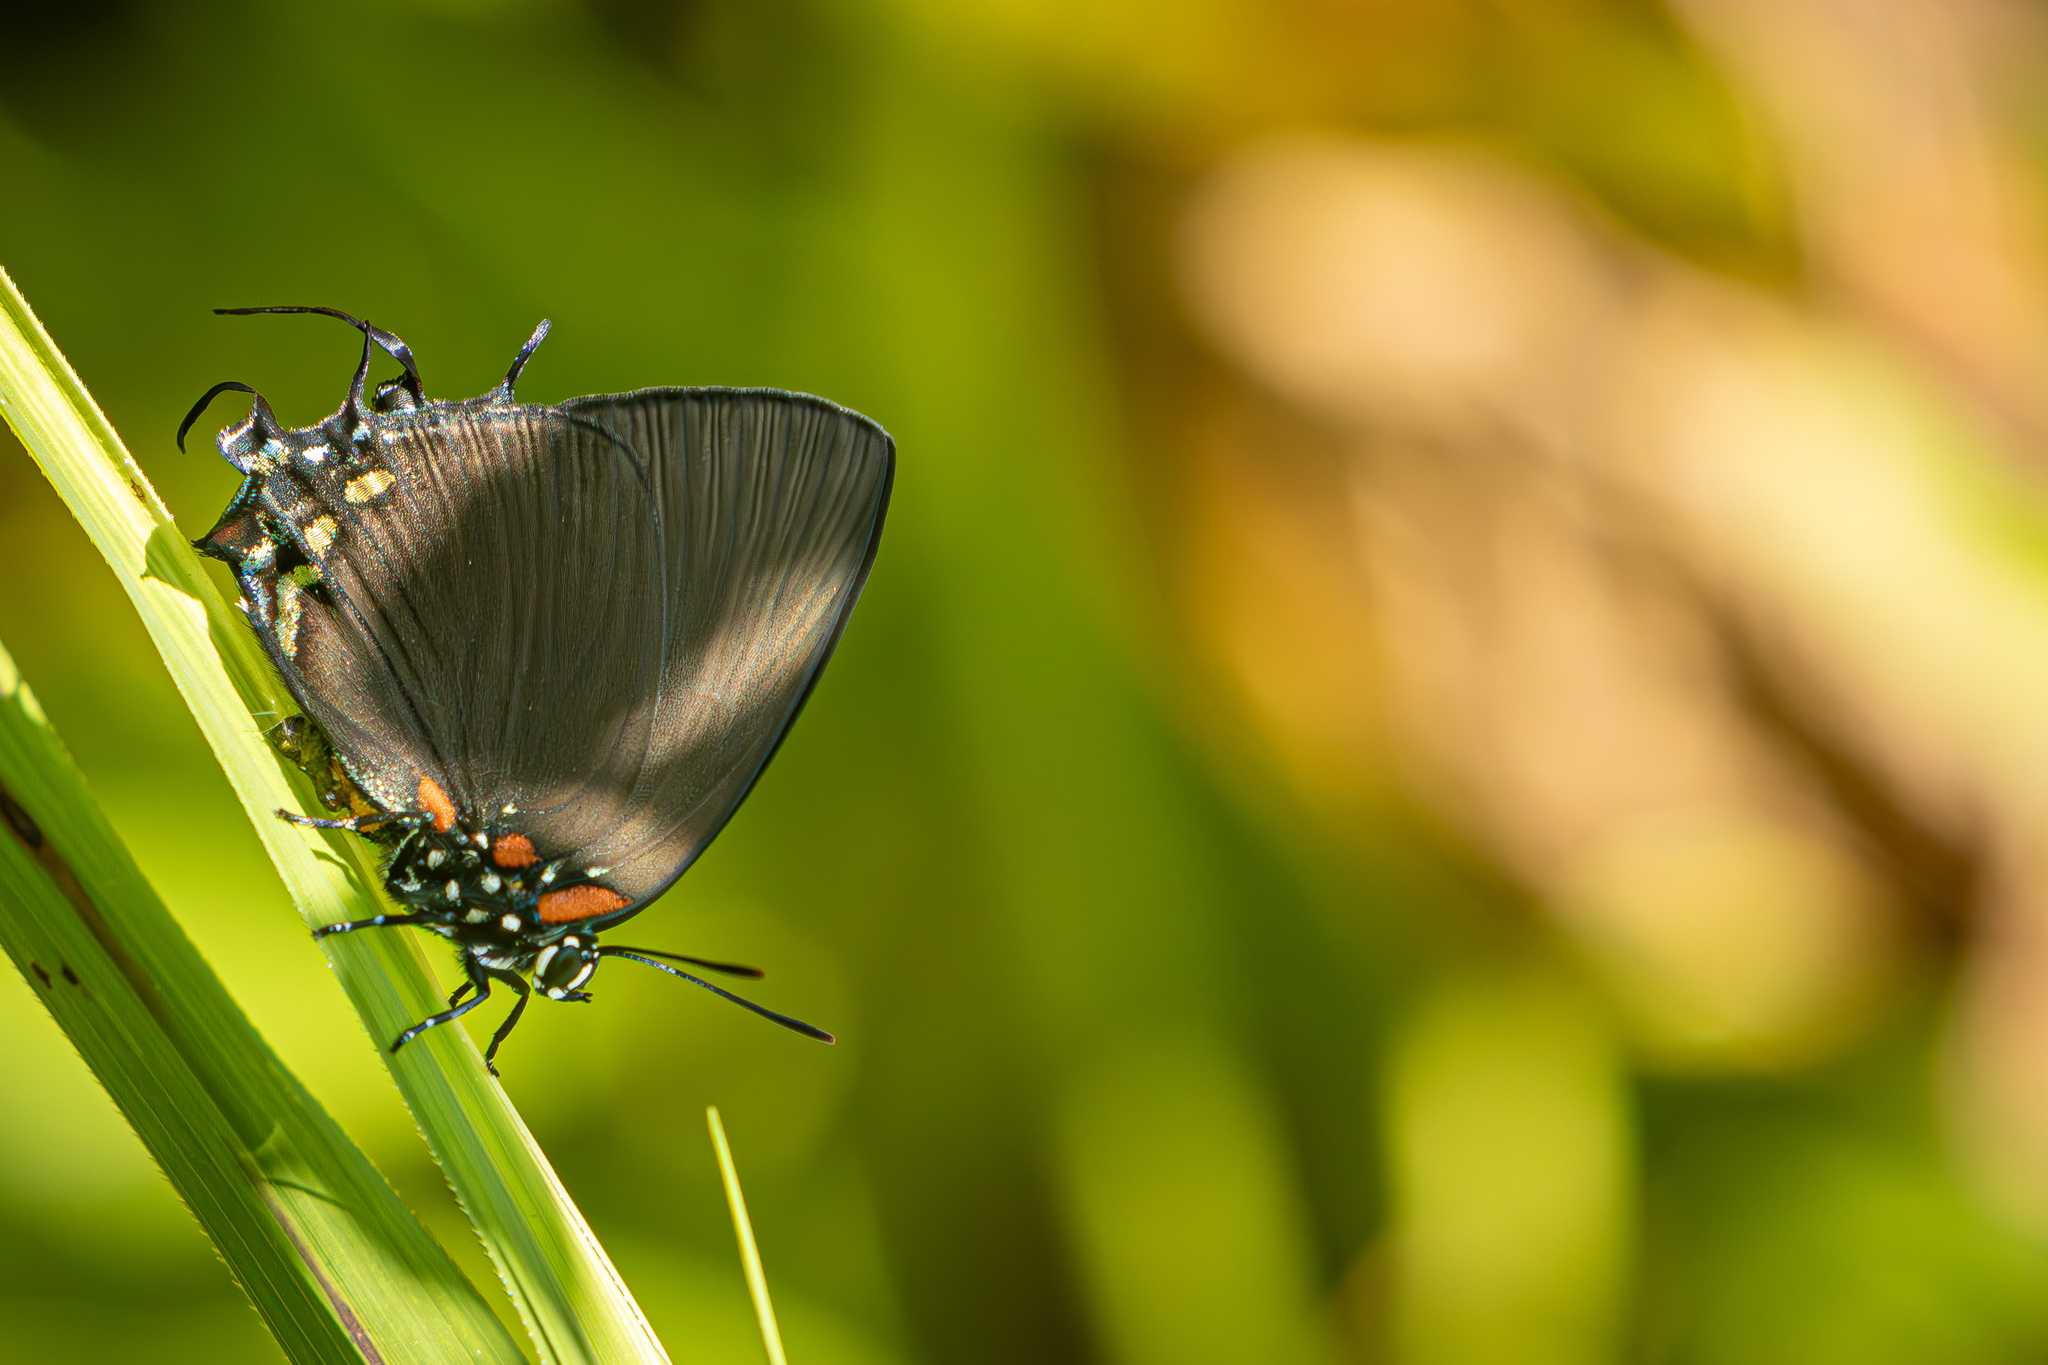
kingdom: Animalia
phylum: Arthropoda
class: Insecta
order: Lepidoptera
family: Lycaenidae
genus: Atlides
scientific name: Atlides halesus
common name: Great purple hairstreak
